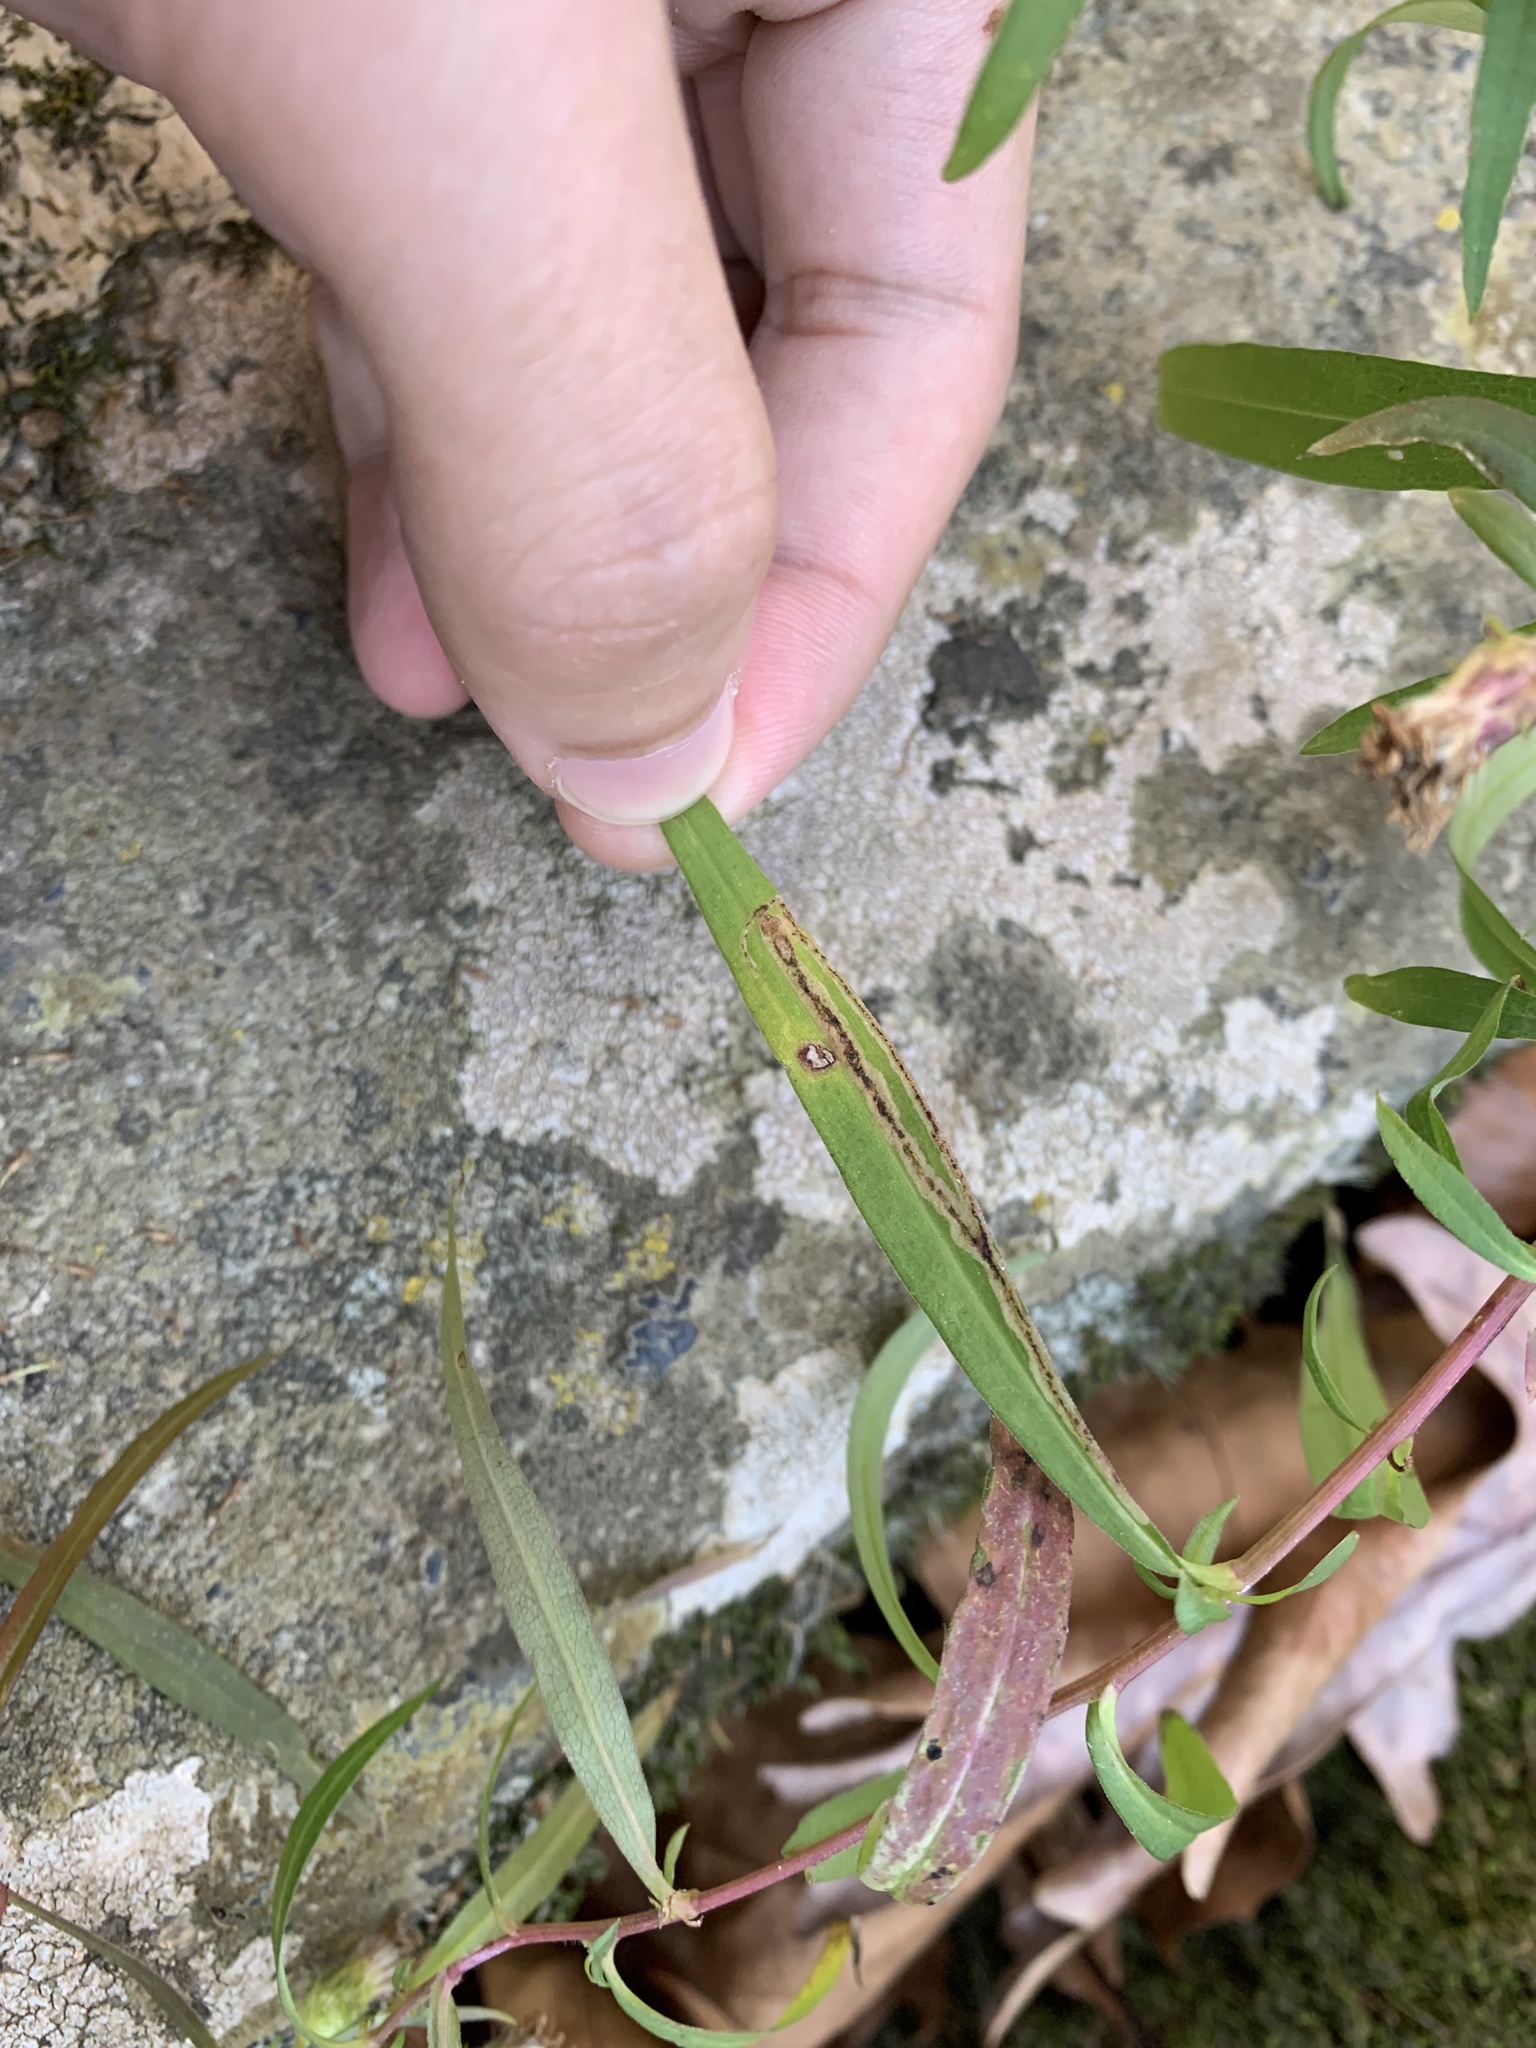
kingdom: Animalia
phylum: Arthropoda
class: Insecta
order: Diptera
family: Agromyzidae
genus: Liriomyza
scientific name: Liriomyza eupatorii
